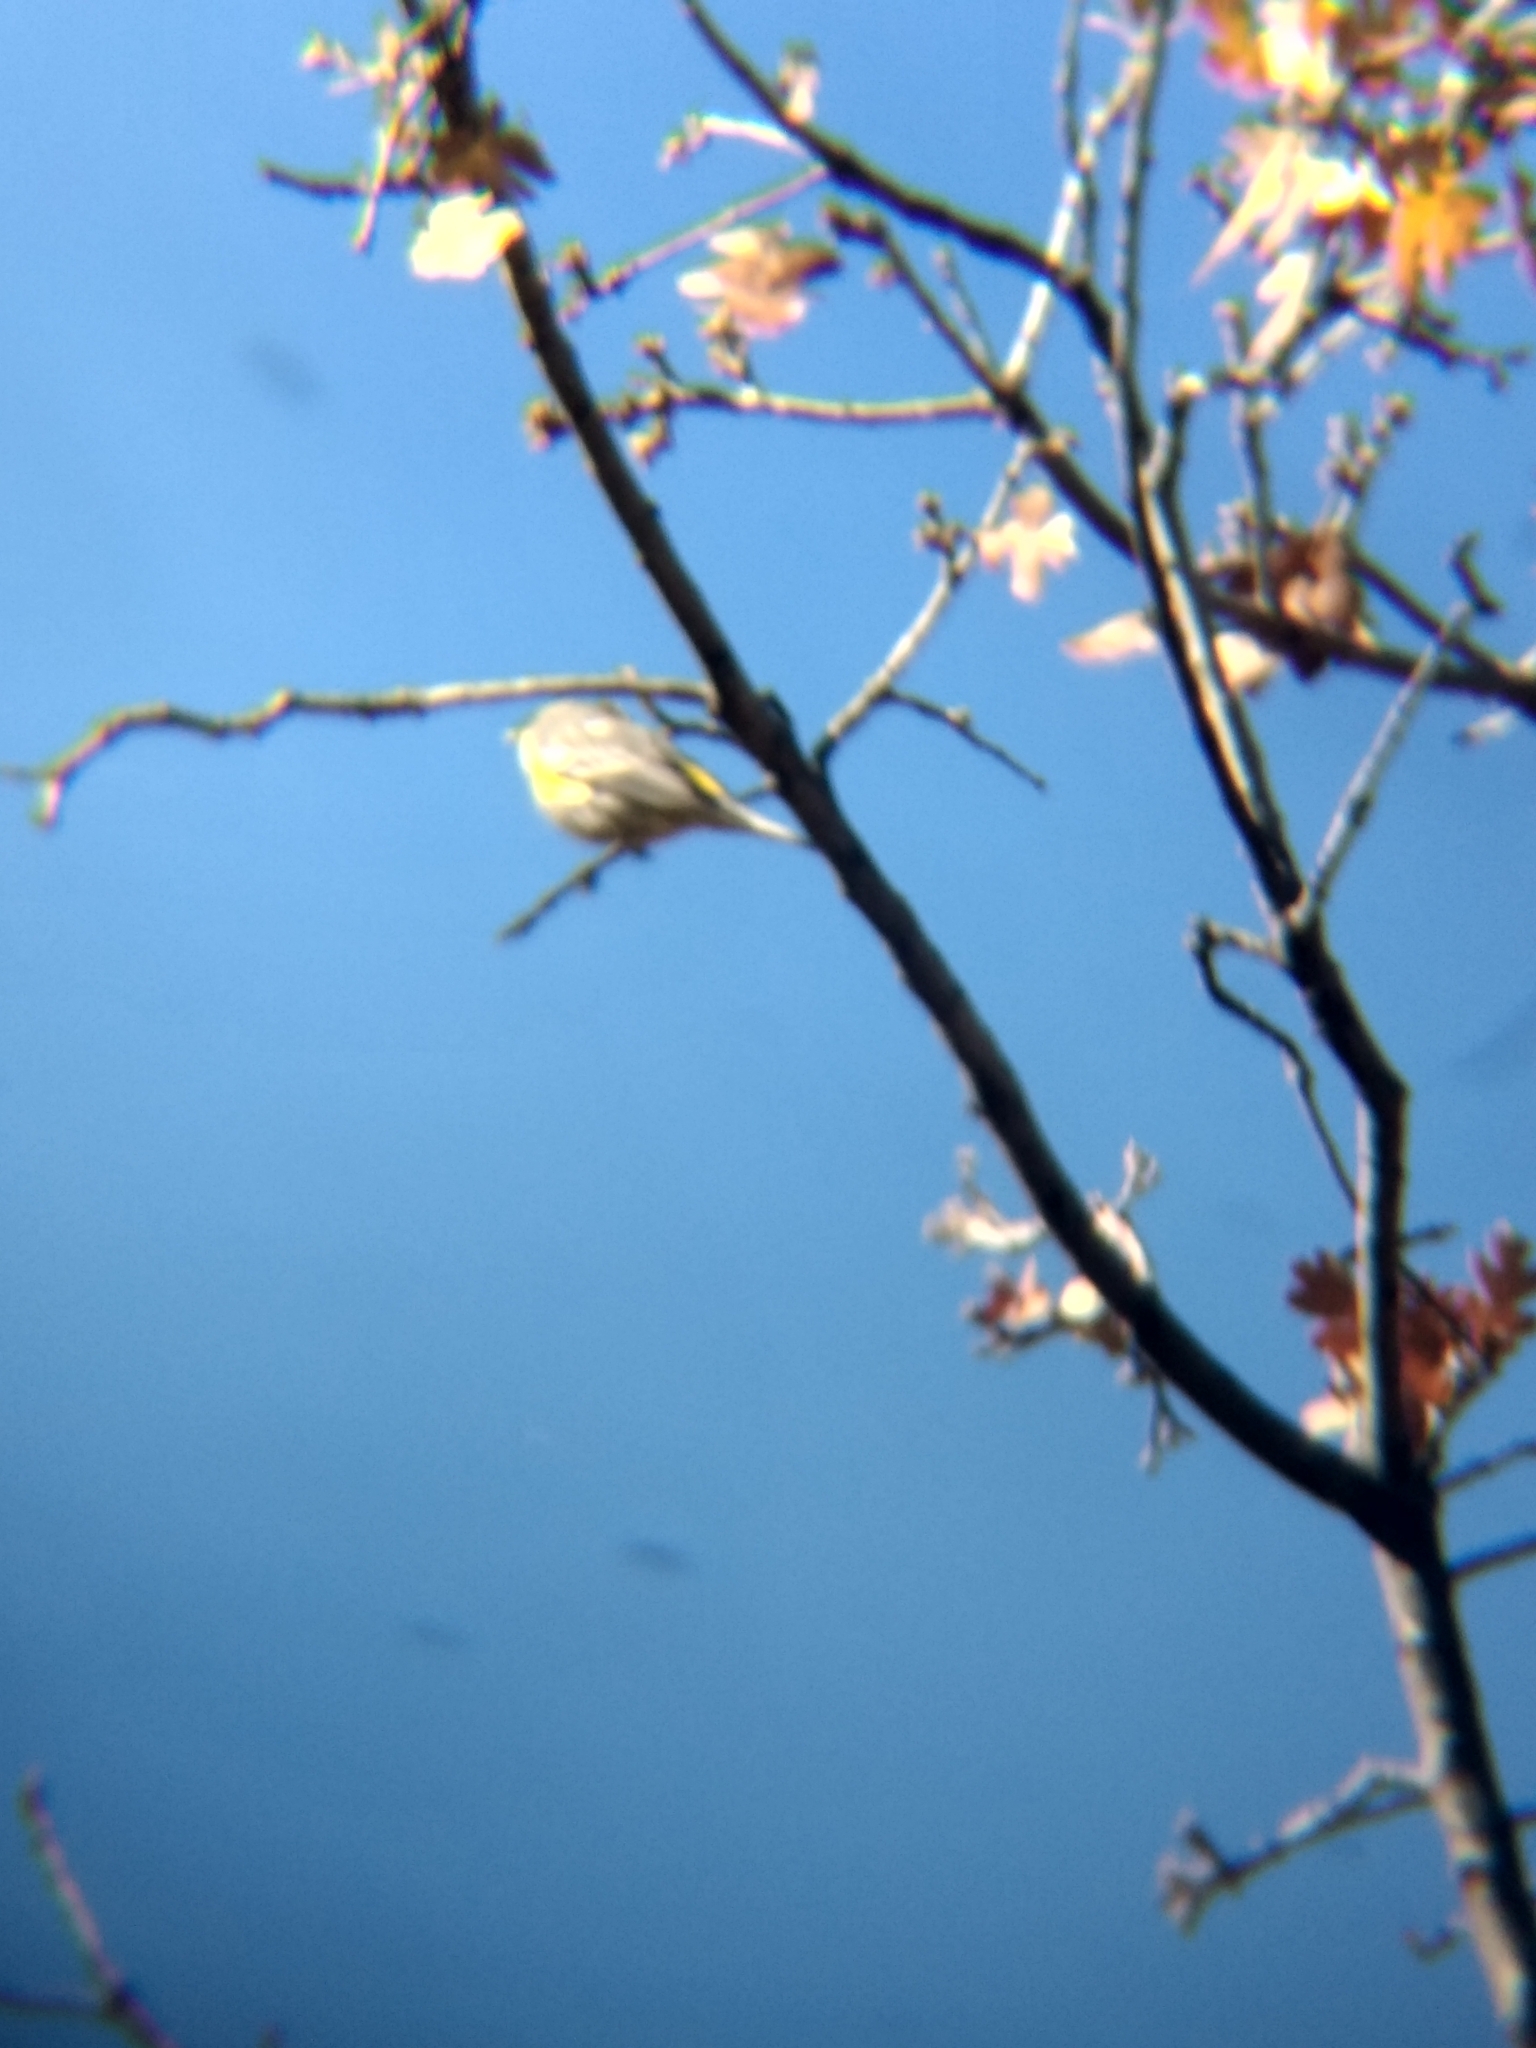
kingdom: Animalia
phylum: Chordata
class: Aves
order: Passeriformes
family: Parulidae
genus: Setophaga
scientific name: Setophaga coronata
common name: Myrtle warbler
